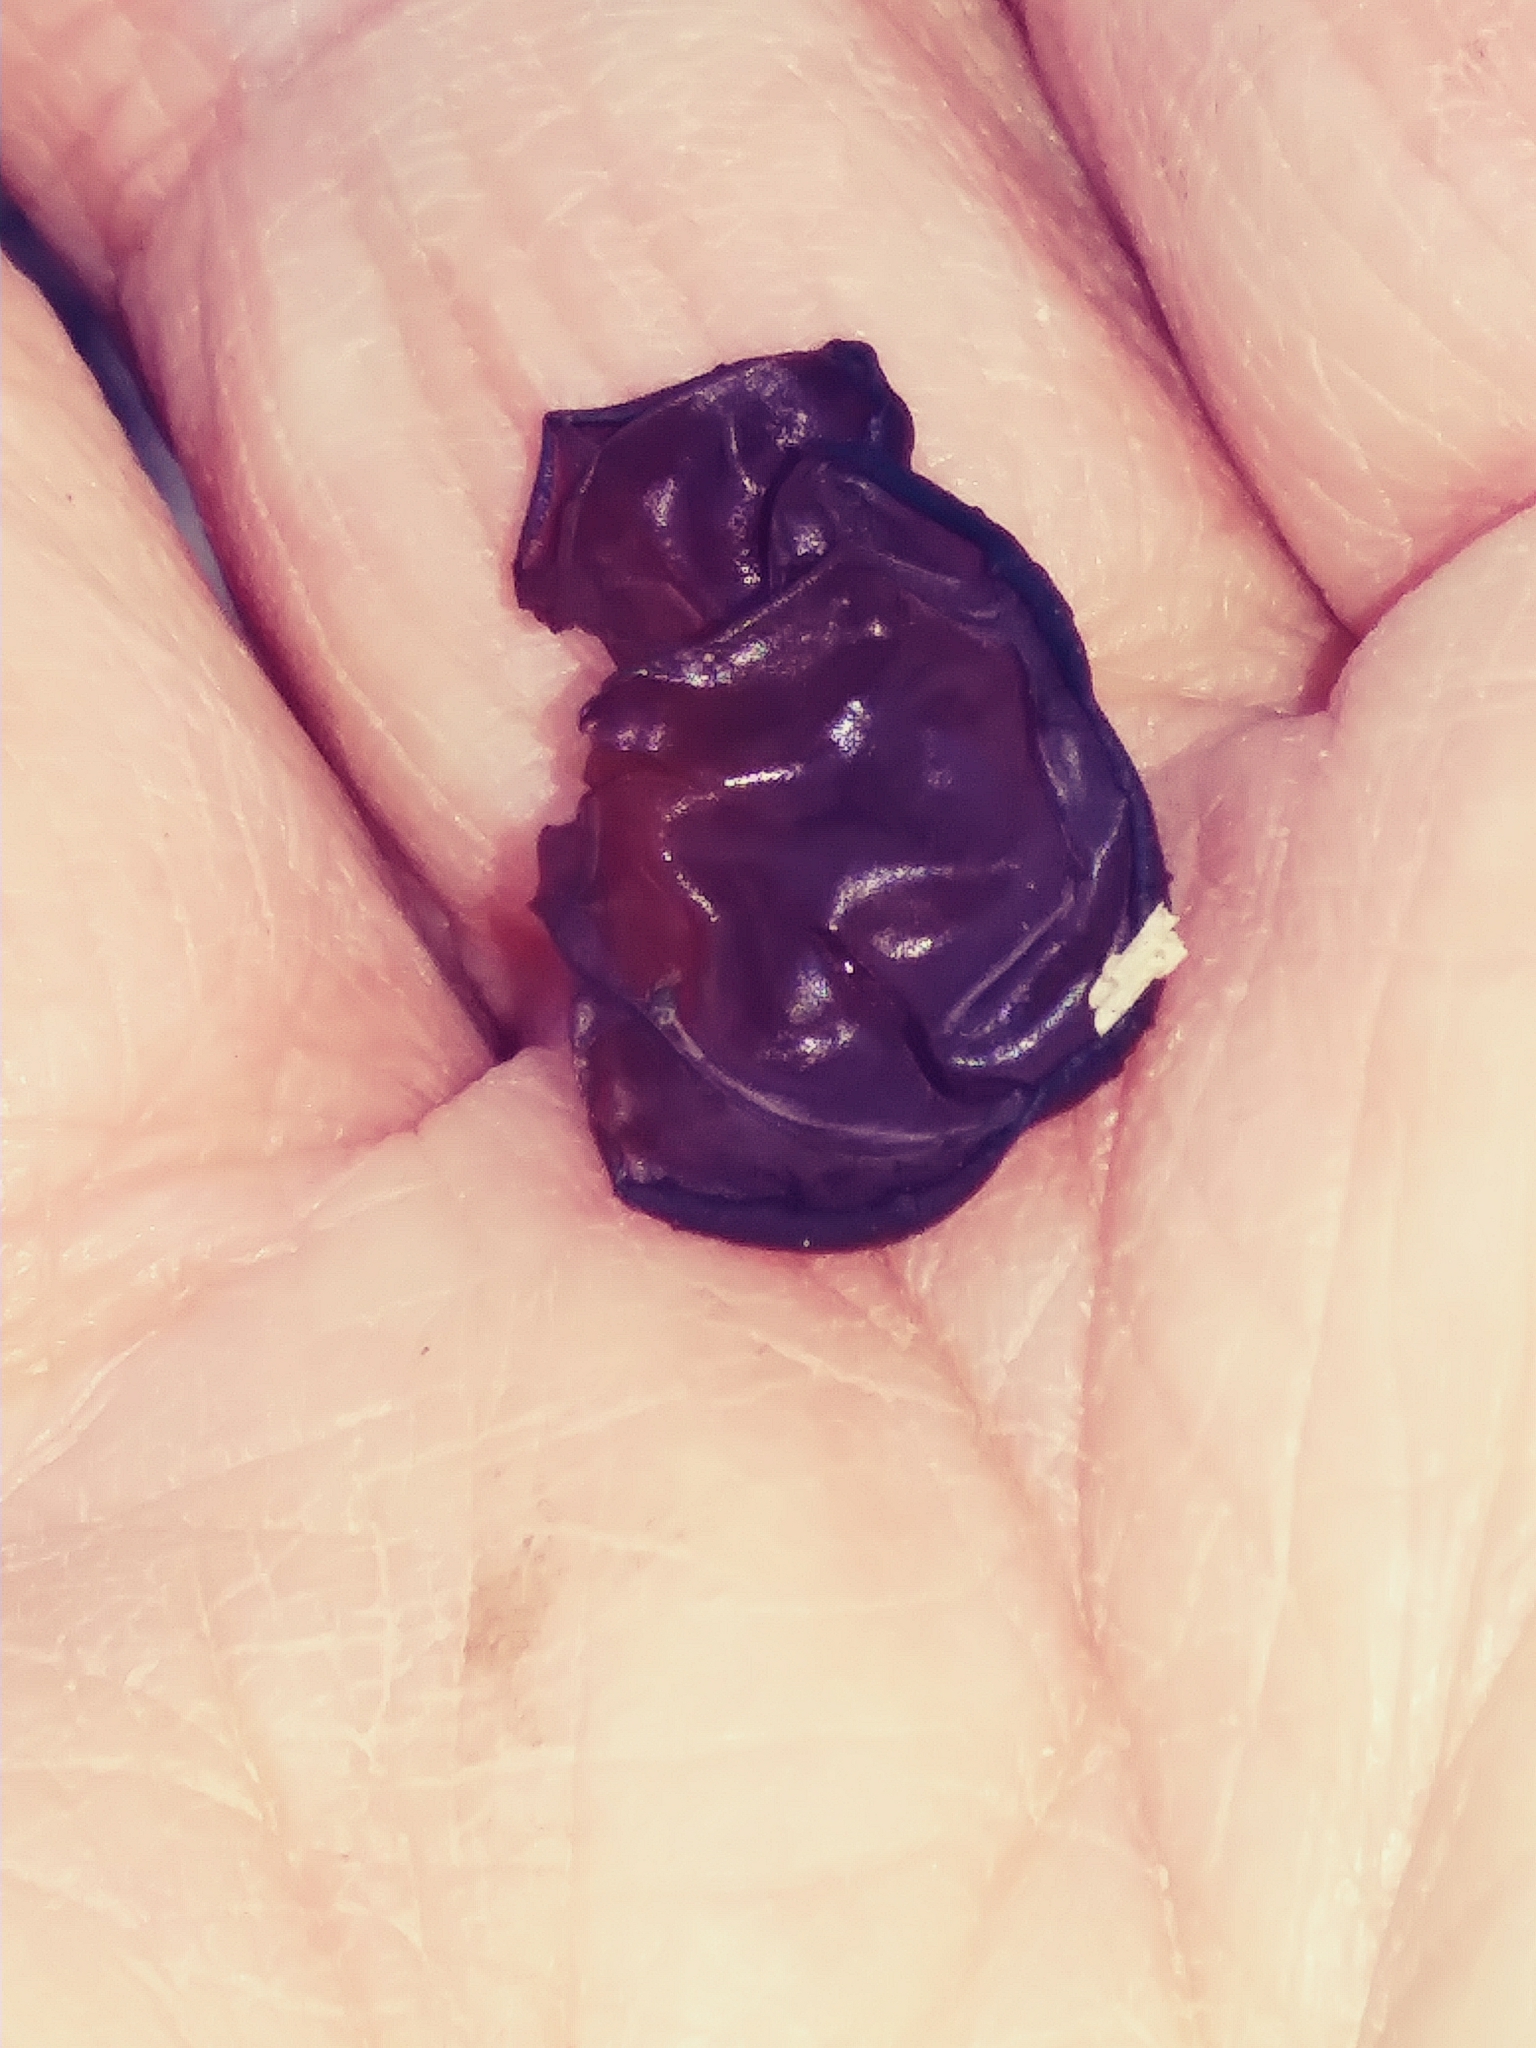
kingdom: Fungi
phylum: Basidiomycota
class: Agaricomycetes
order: Auriculariales
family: Auriculariaceae
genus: Exidia
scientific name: Exidia
